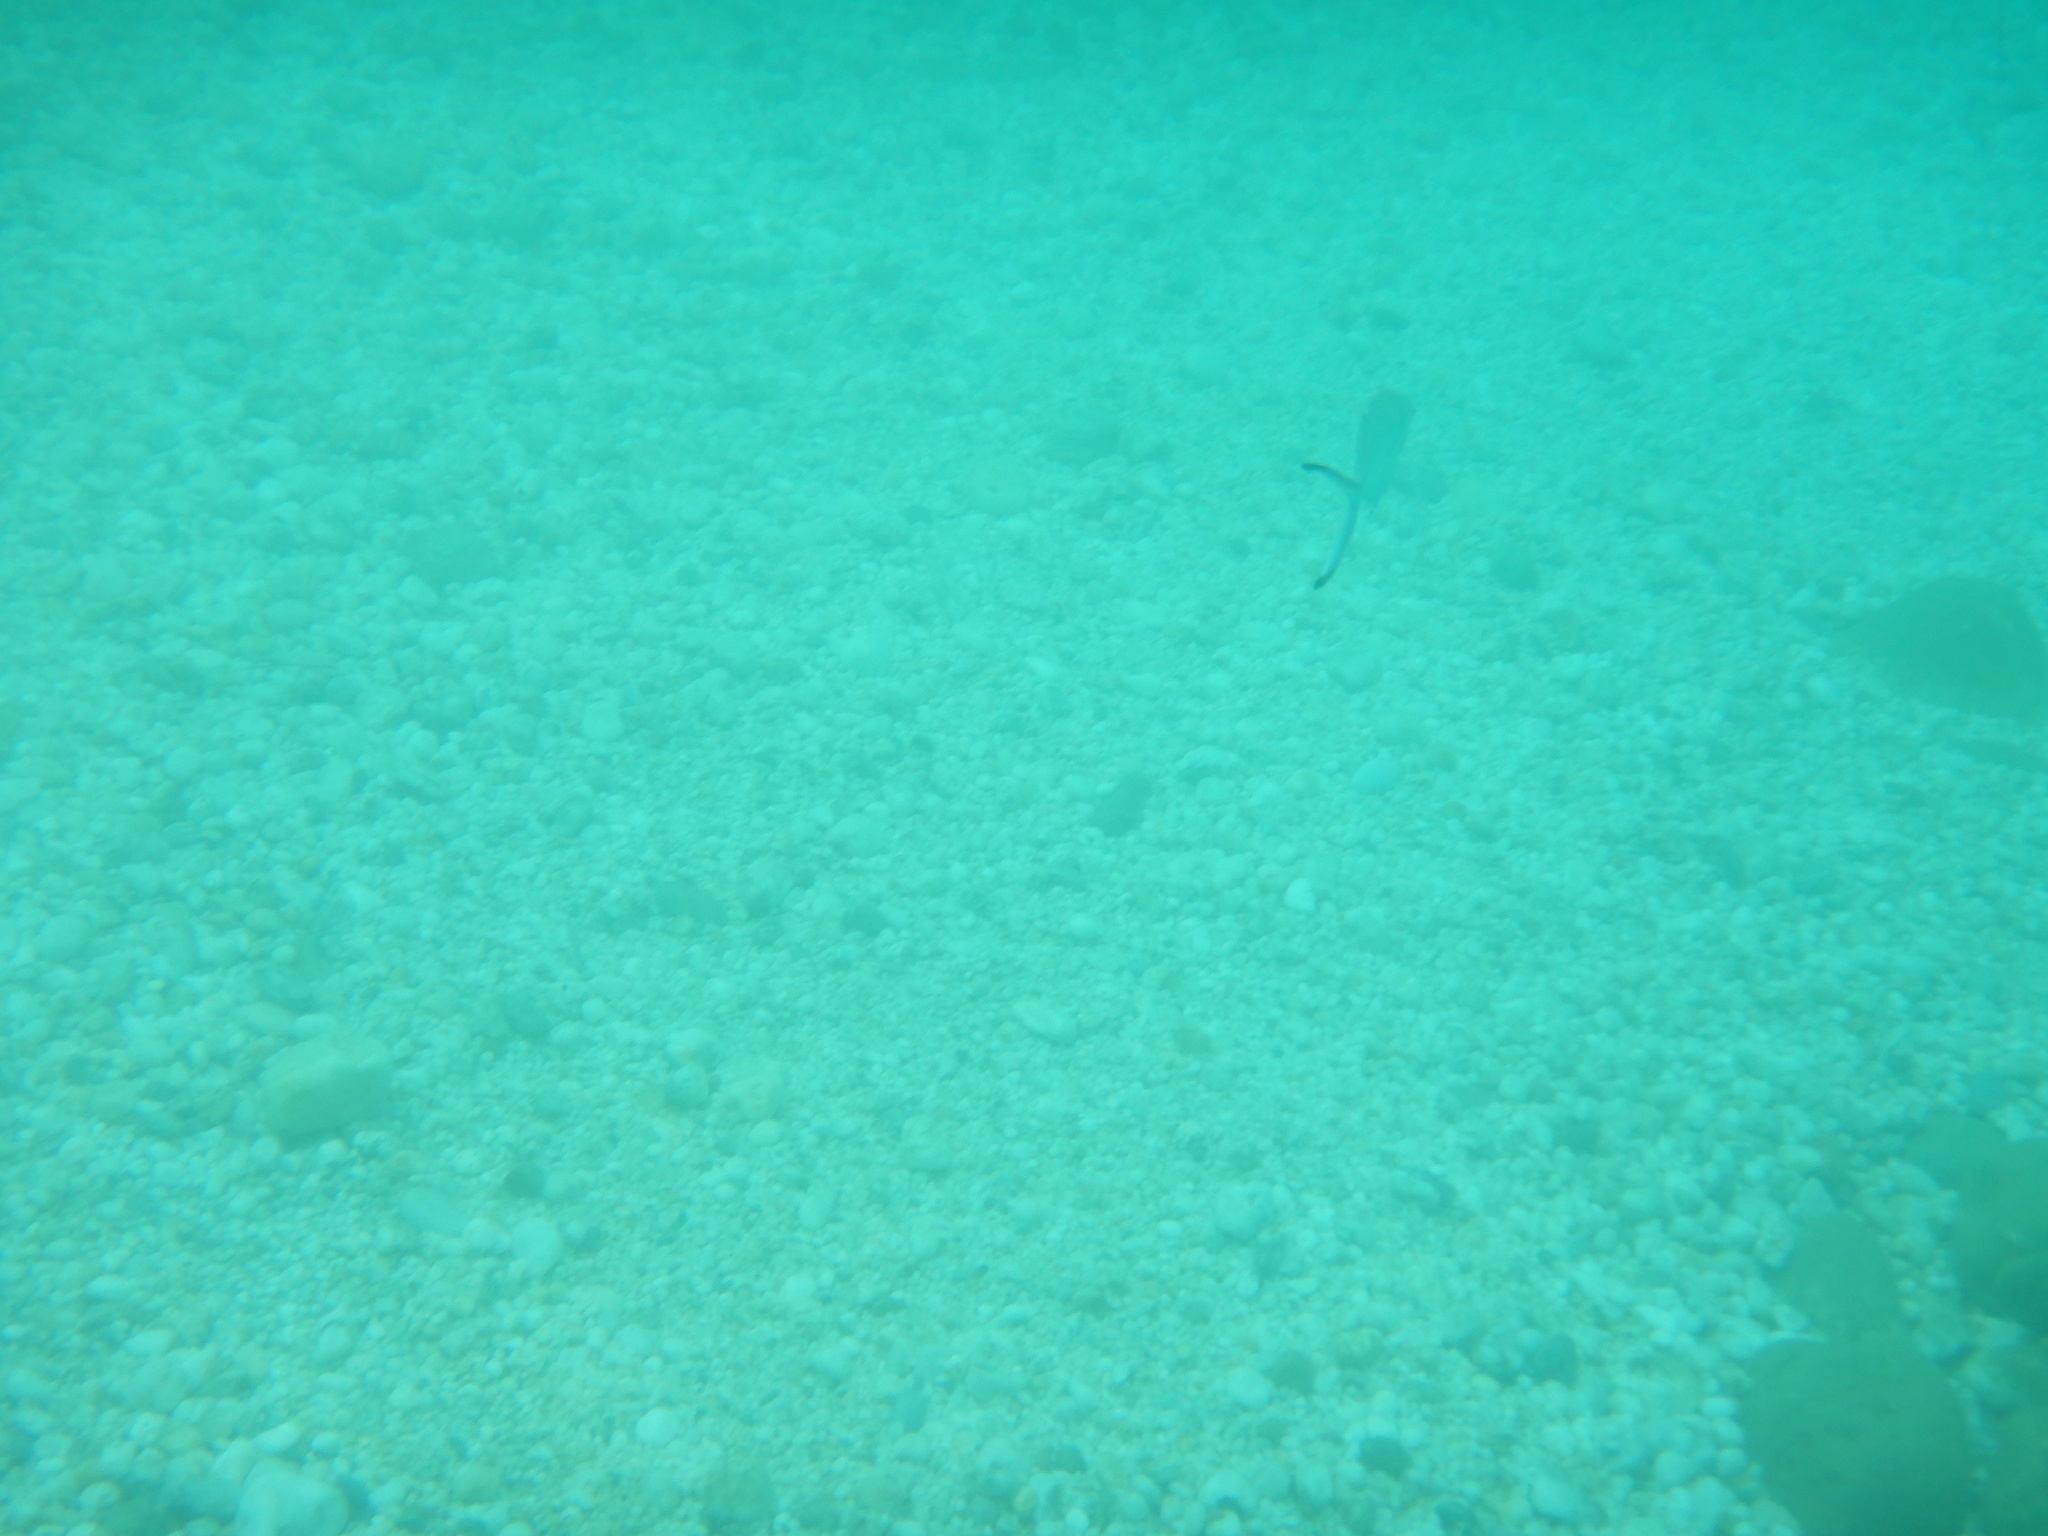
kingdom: Animalia
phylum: Chordata
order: Perciformes
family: Carangidae
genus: Trachinotus
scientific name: Trachinotus ovatus
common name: Pompano
